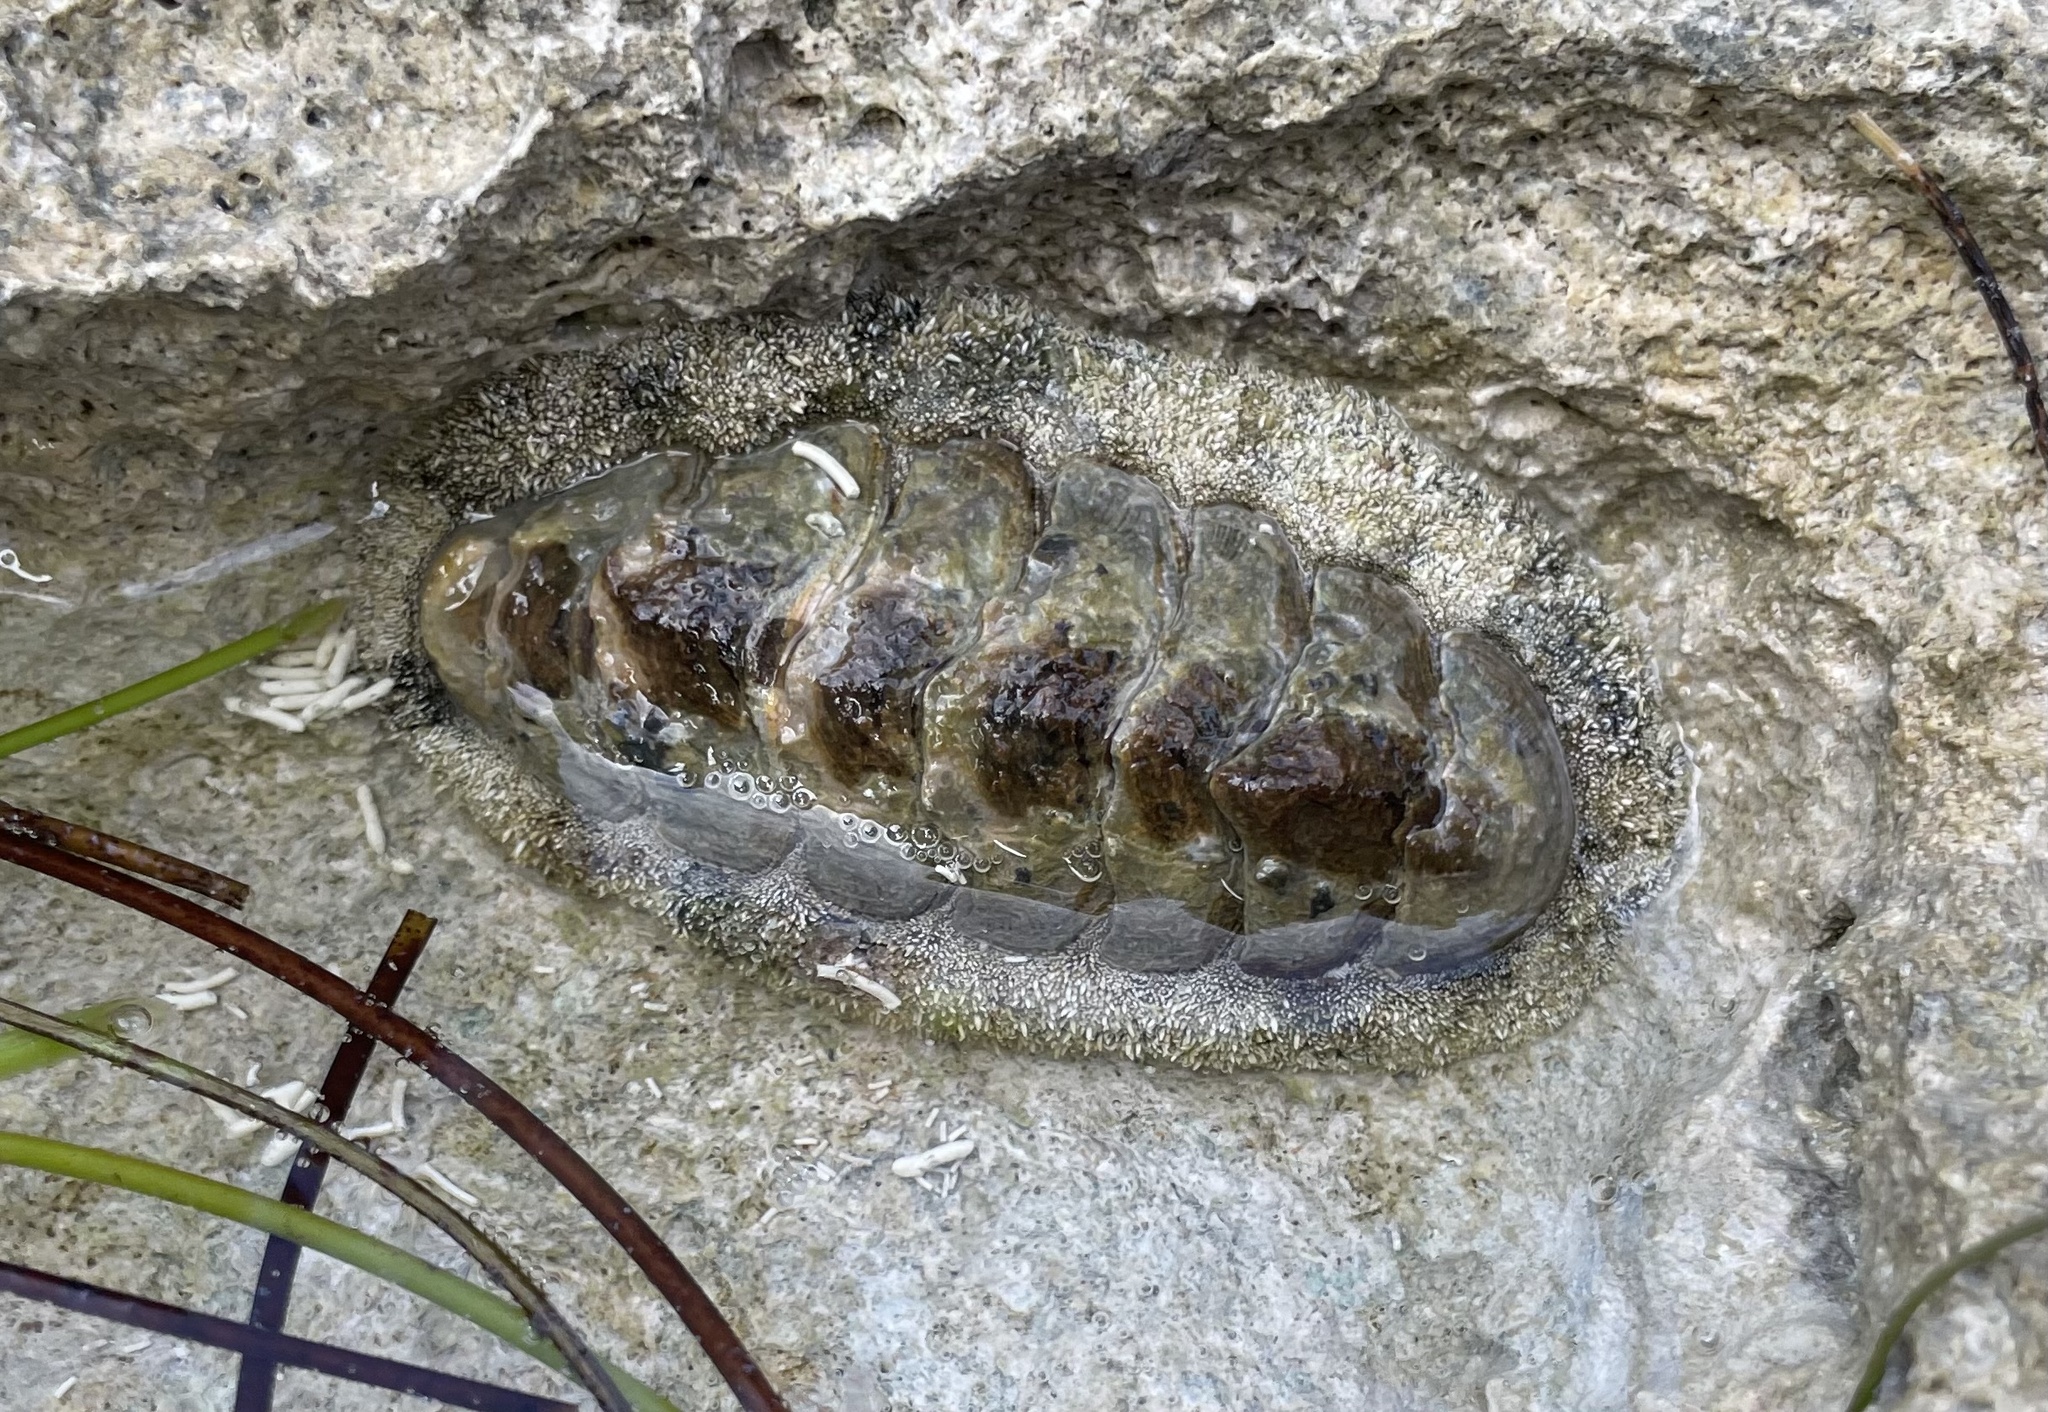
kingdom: Animalia
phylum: Mollusca
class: Polyplacophora
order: Chitonida
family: Chitonidae
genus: Acanthopleura
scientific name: Acanthopleura granulata
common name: West indian fuzzy chiton
